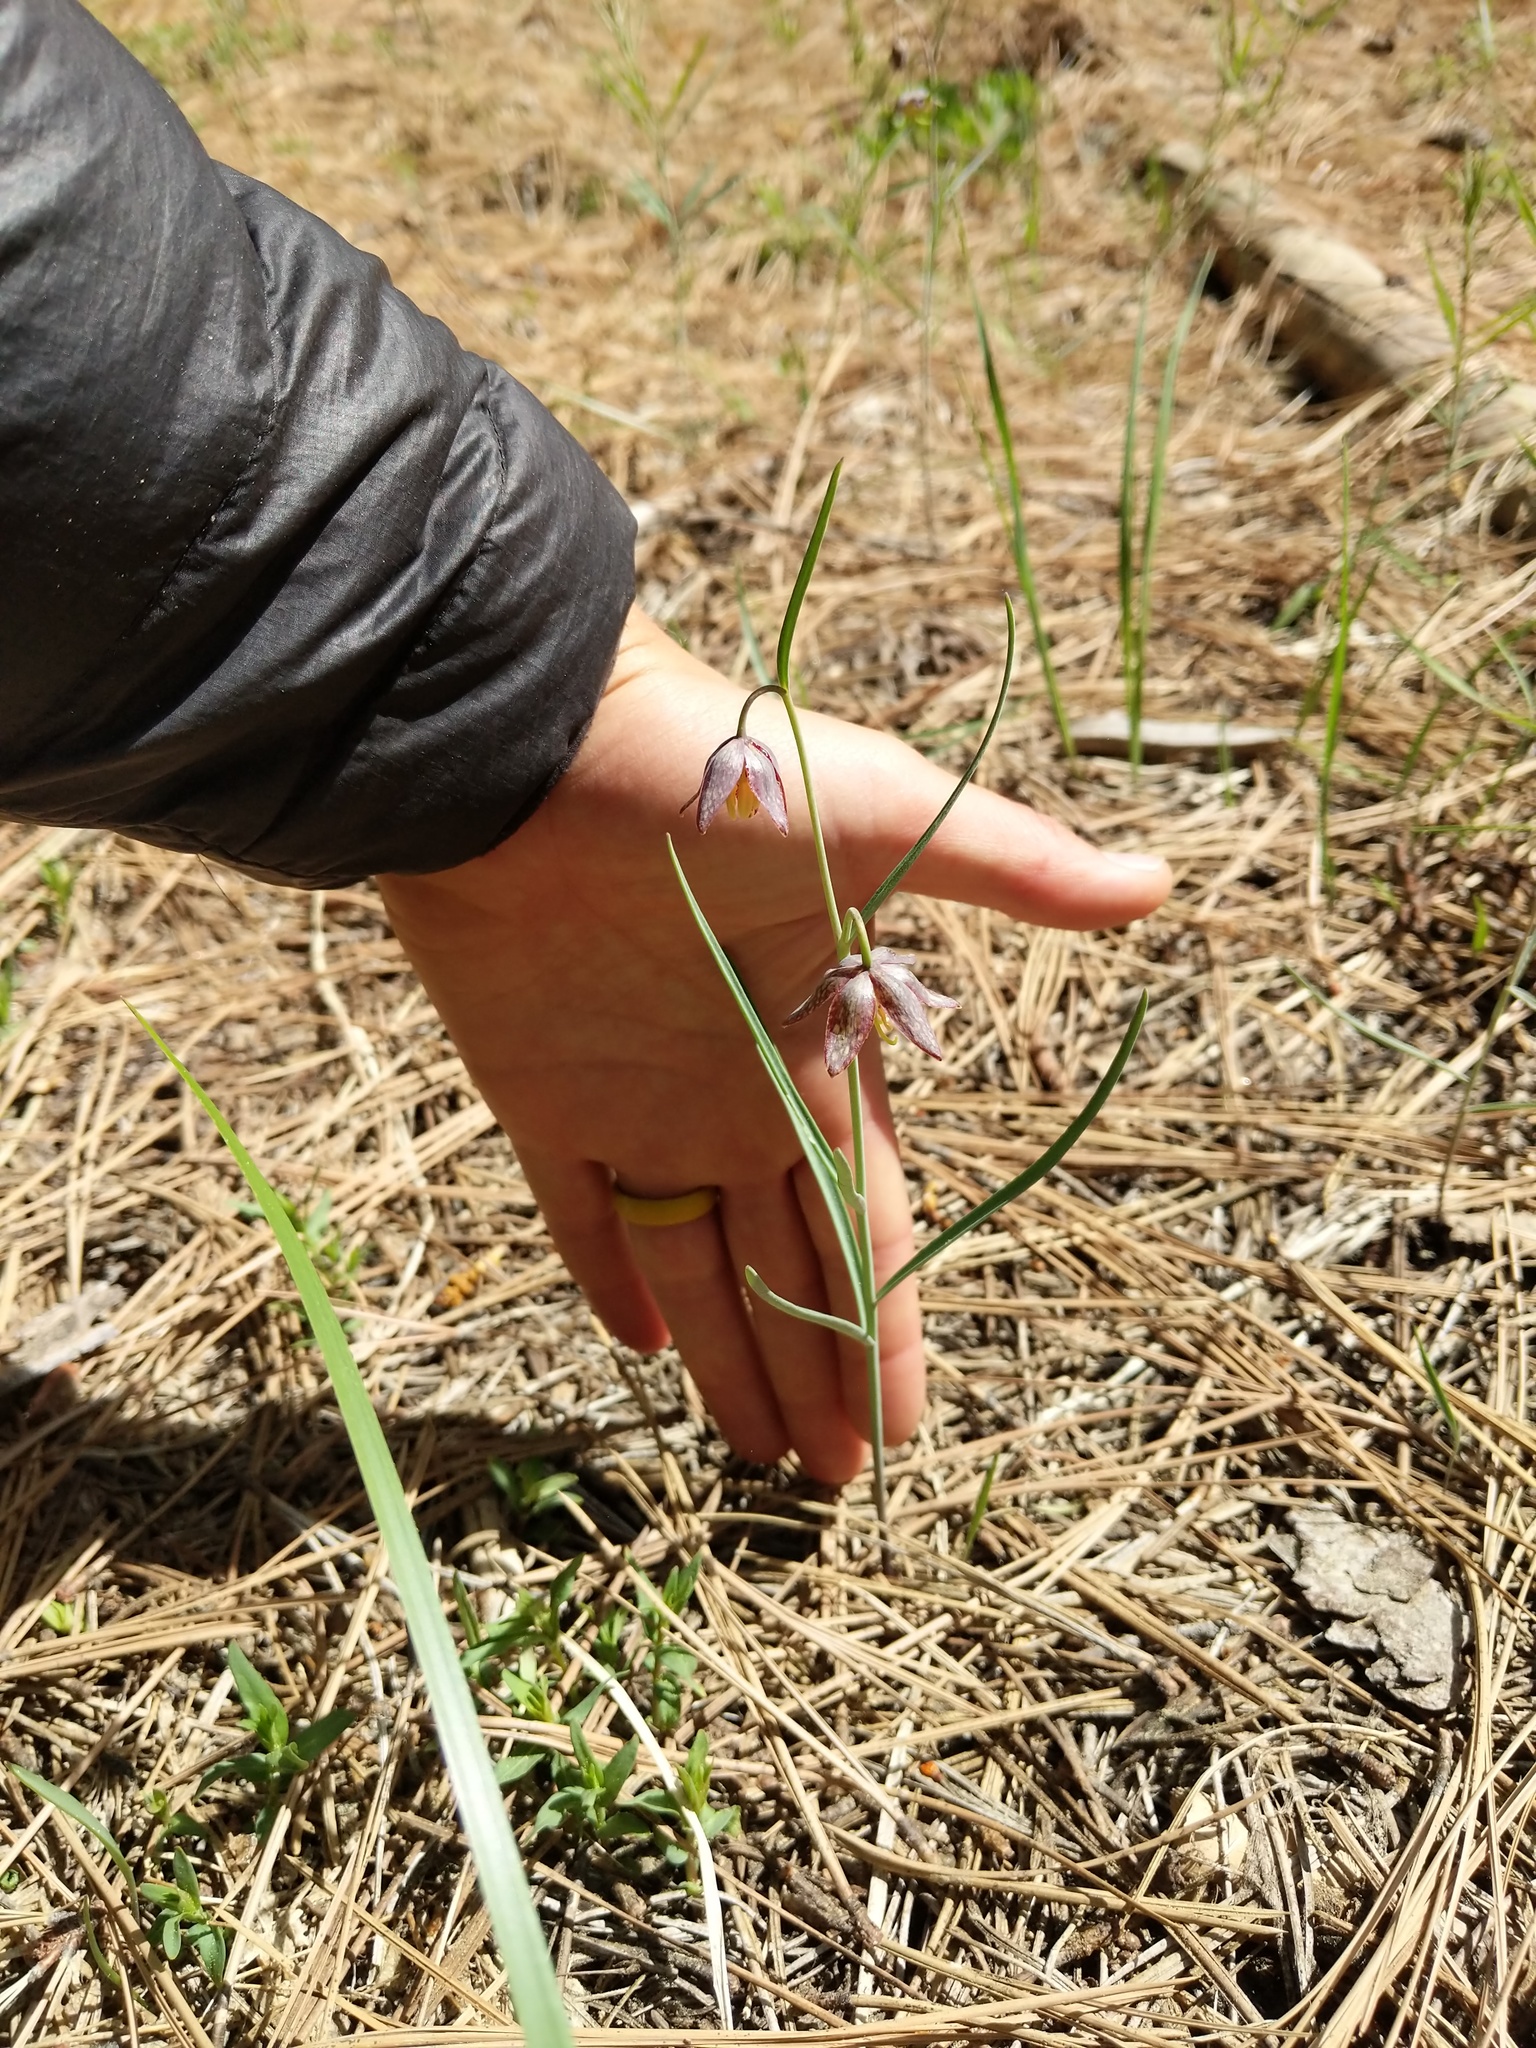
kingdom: Plantae
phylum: Tracheophyta
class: Liliopsida
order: Liliales
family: Liliaceae
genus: Fritillaria
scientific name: Fritillaria atropurpurea
